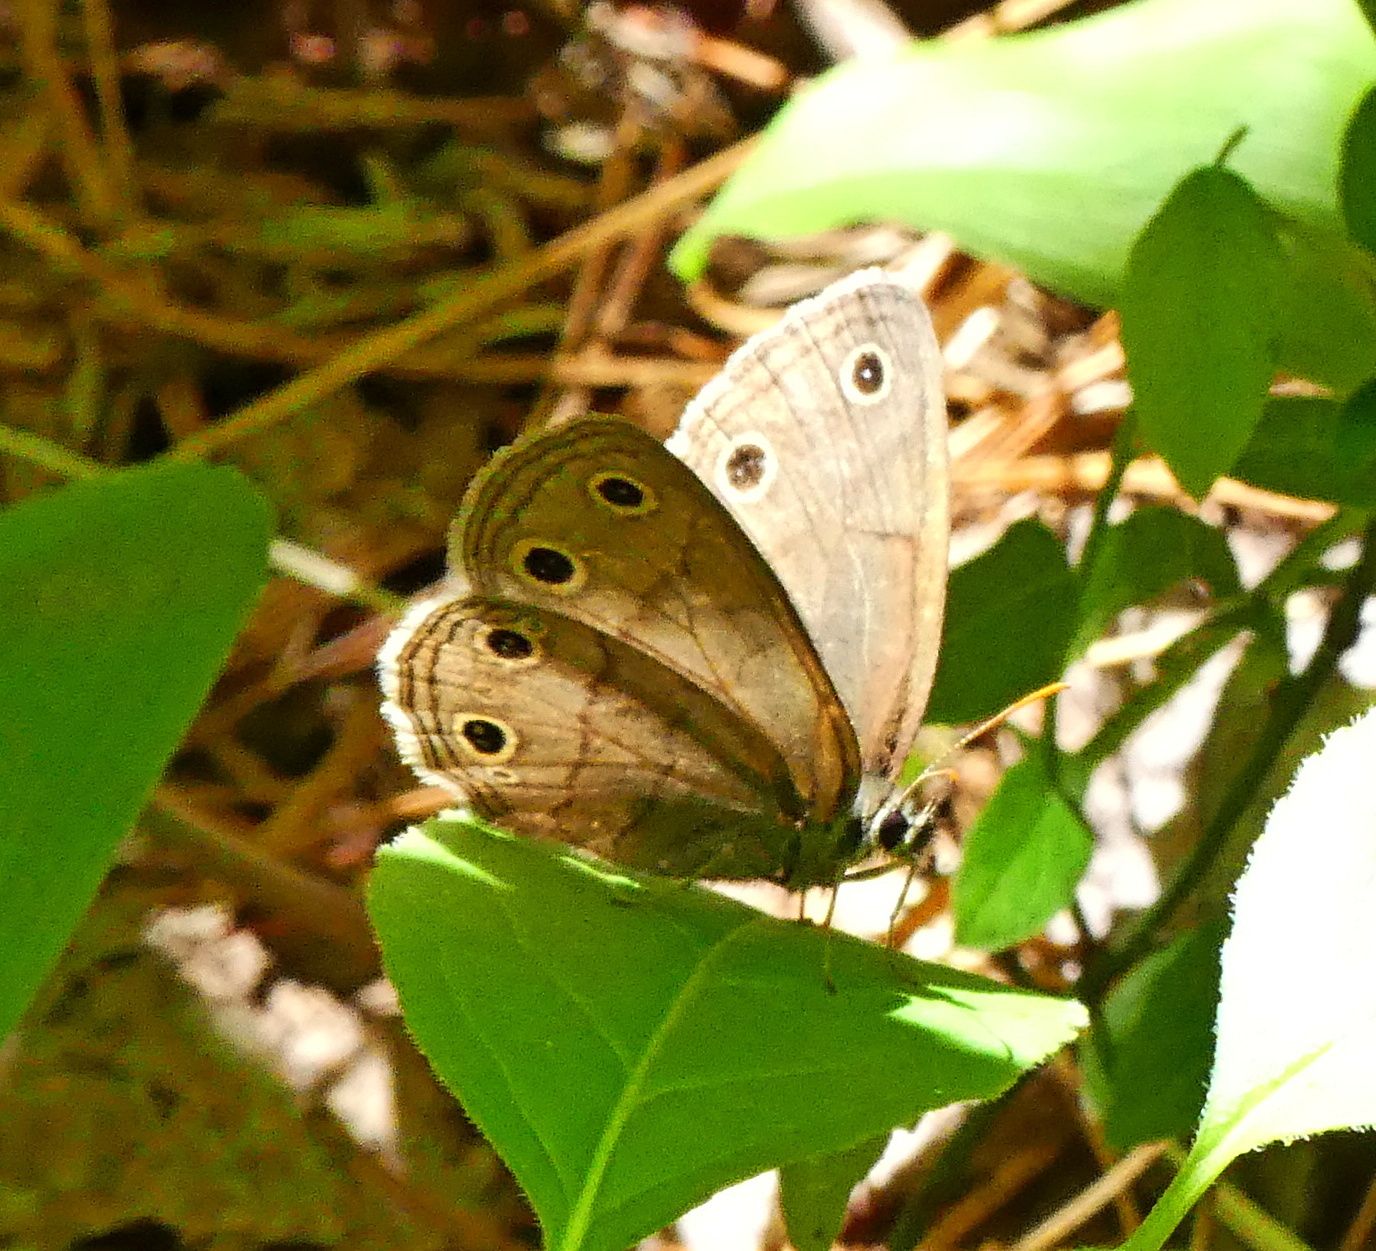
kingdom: Animalia
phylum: Arthropoda
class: Insecta
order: Lepidoptera
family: Nymphalidae
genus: Euptychia
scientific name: Euptychia cymela
